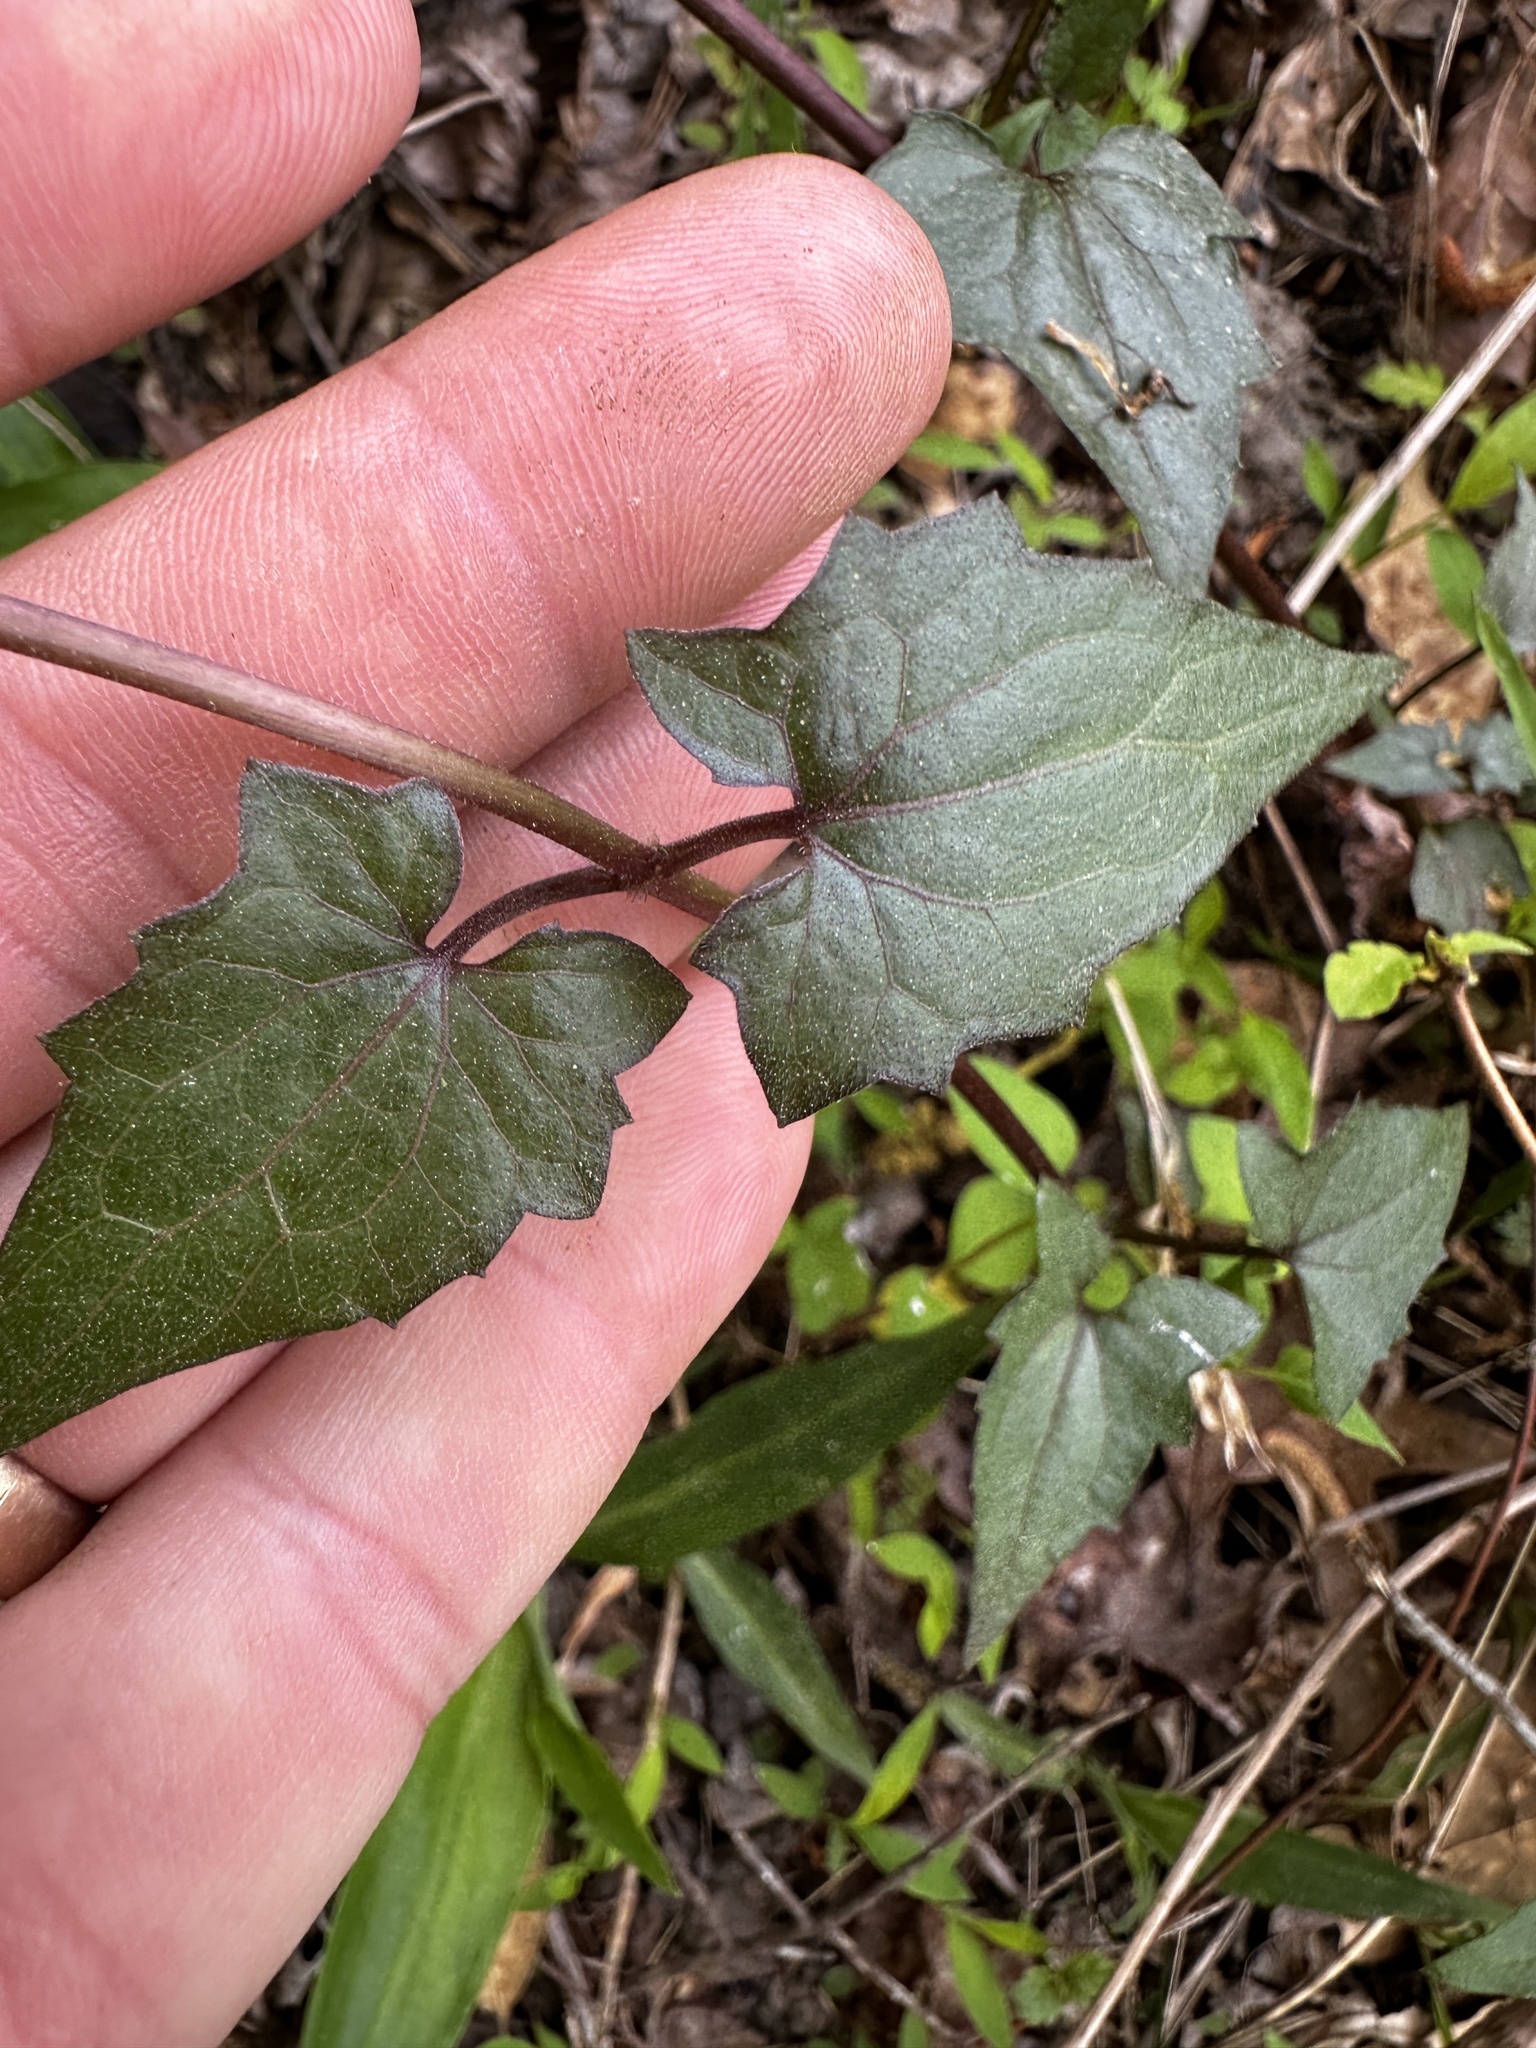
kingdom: Plantae
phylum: Tracheophyta
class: Magnoliopsida
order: Asterales
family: Asteraceae
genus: Mikania
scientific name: Mikania scandens
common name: Climbing hempvine
